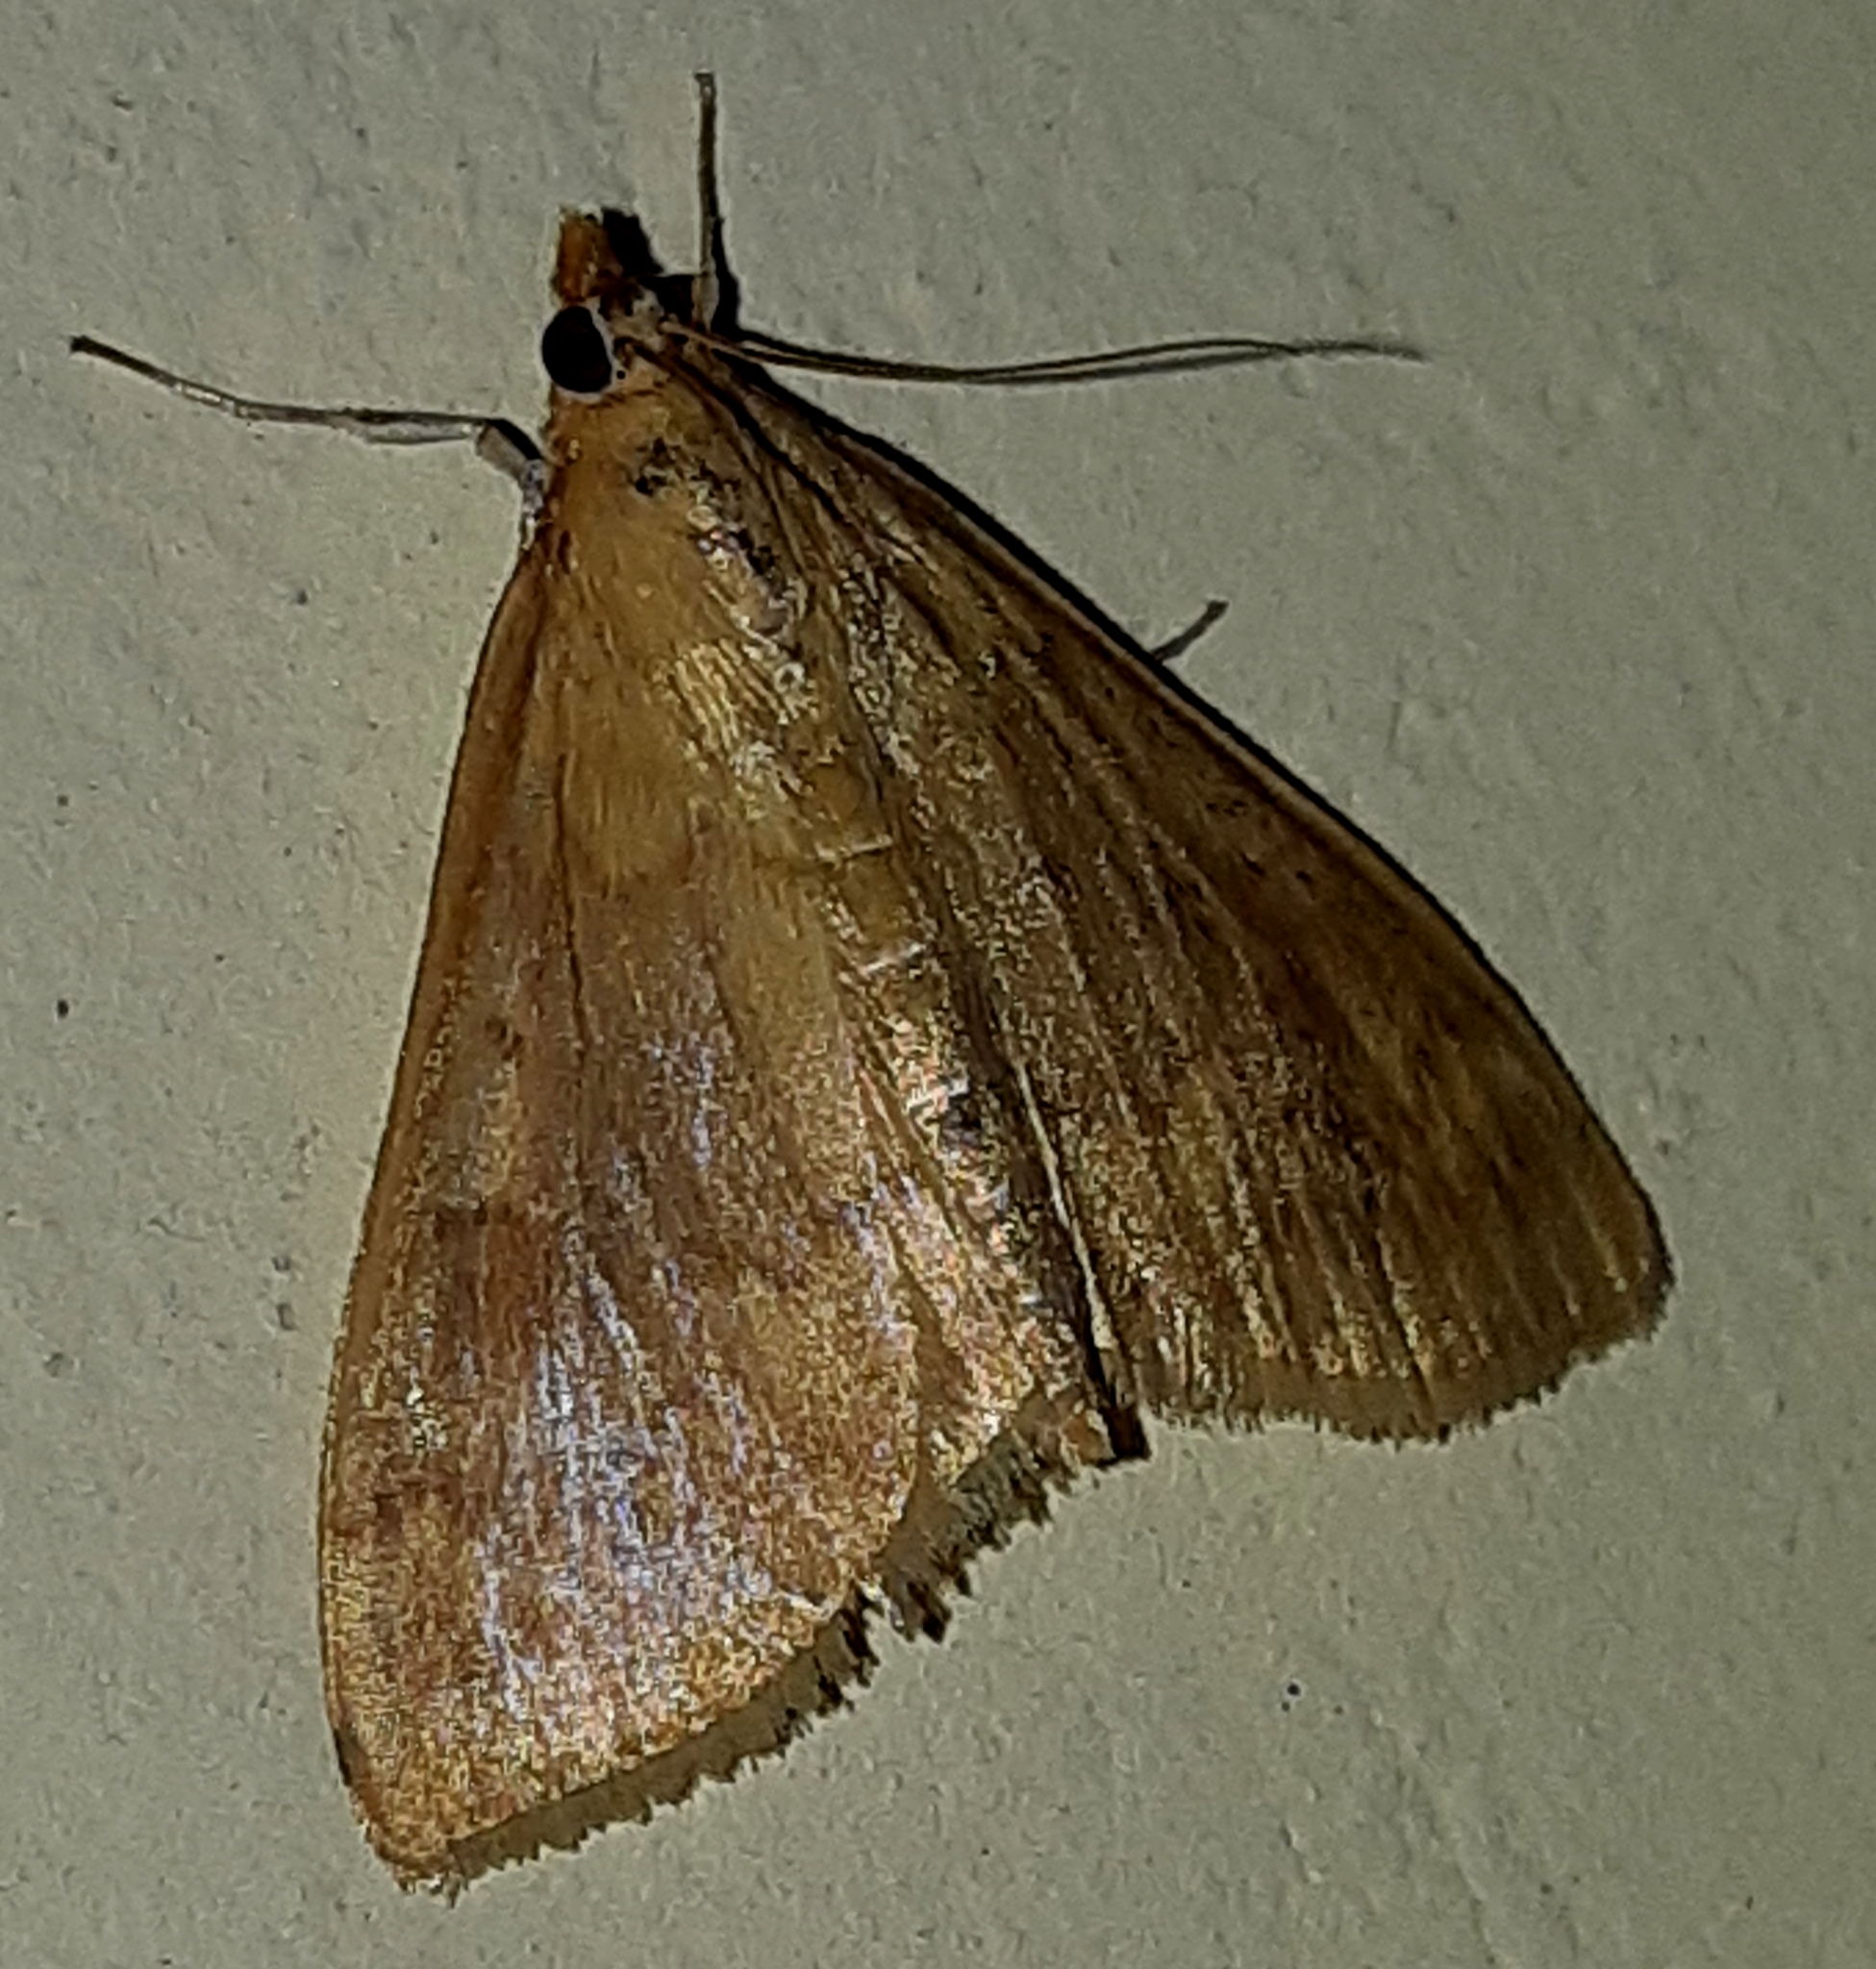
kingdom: Animalia
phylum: Arthropoda
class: Insecta
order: Lepidoptera
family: Crambidae
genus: Ostrinia
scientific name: Ostrinia nubilalis
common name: European corn borer
